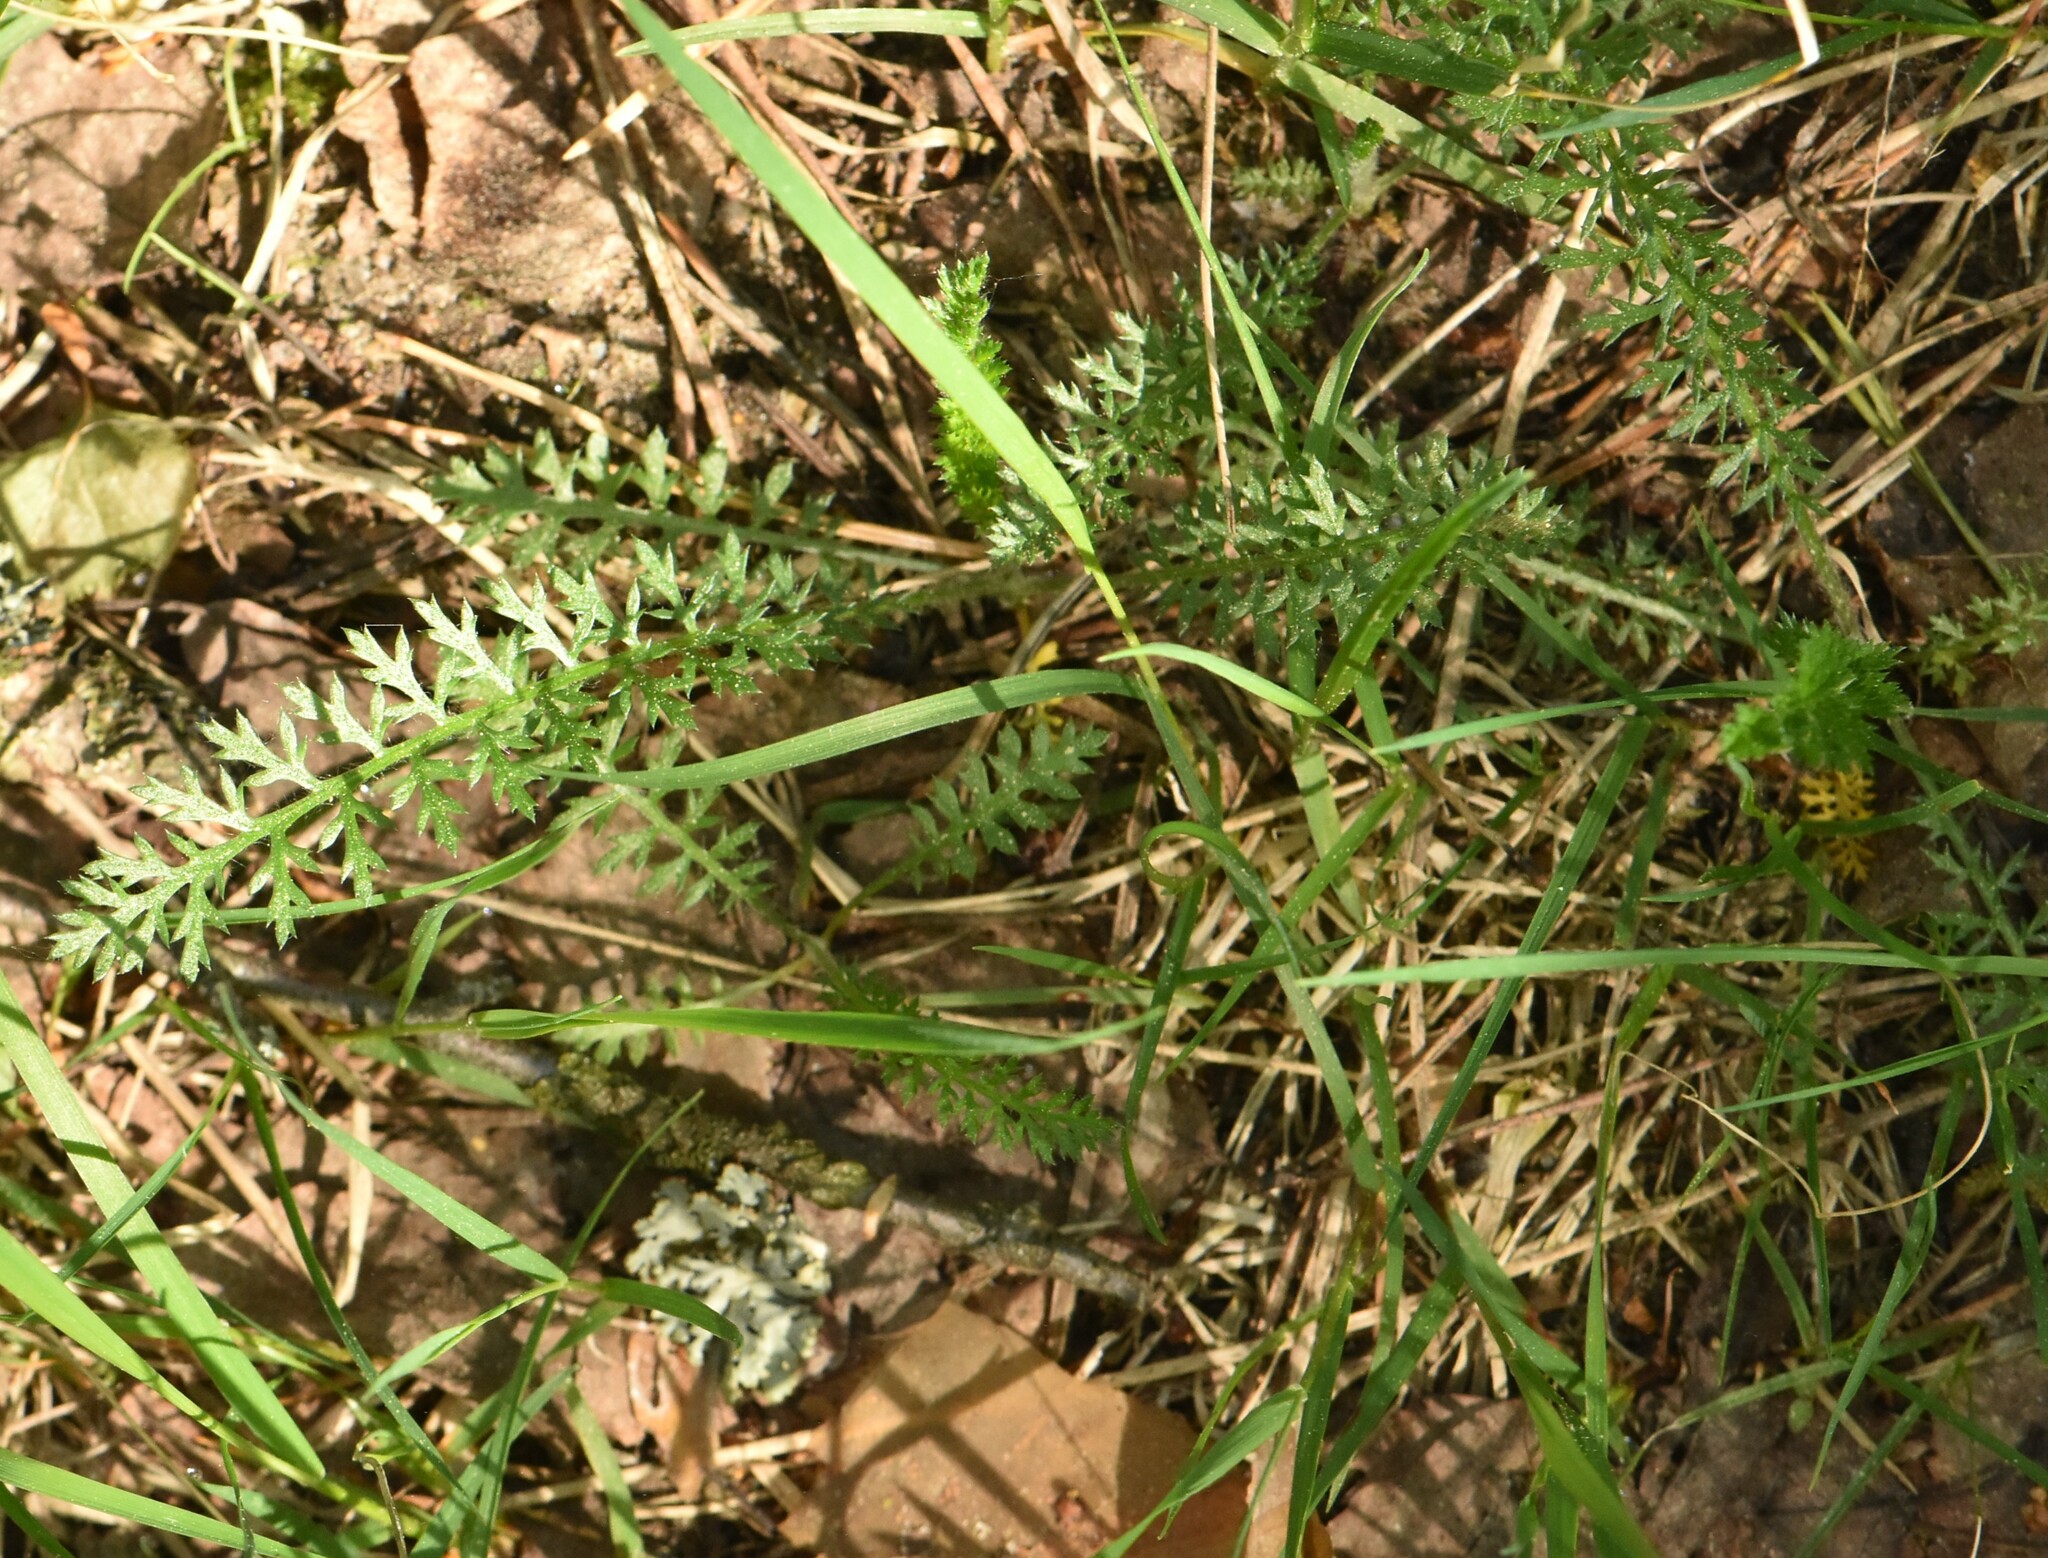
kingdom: Plantae
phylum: Tracheophyta
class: Magnoliopsida
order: Asterales
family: Asteraceae
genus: Achillea
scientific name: Achillea millefolium
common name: Yarrow
